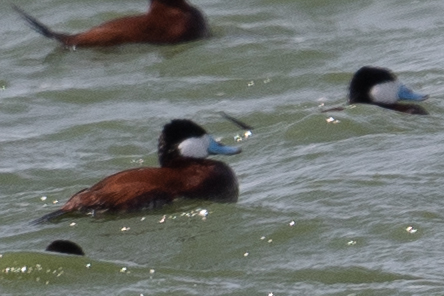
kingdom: Animalia
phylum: Chordata
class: Aves
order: Anseriformes
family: Anatidae
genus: Oxyura
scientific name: Oxyura jamaicensis
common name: Ruddy duck
